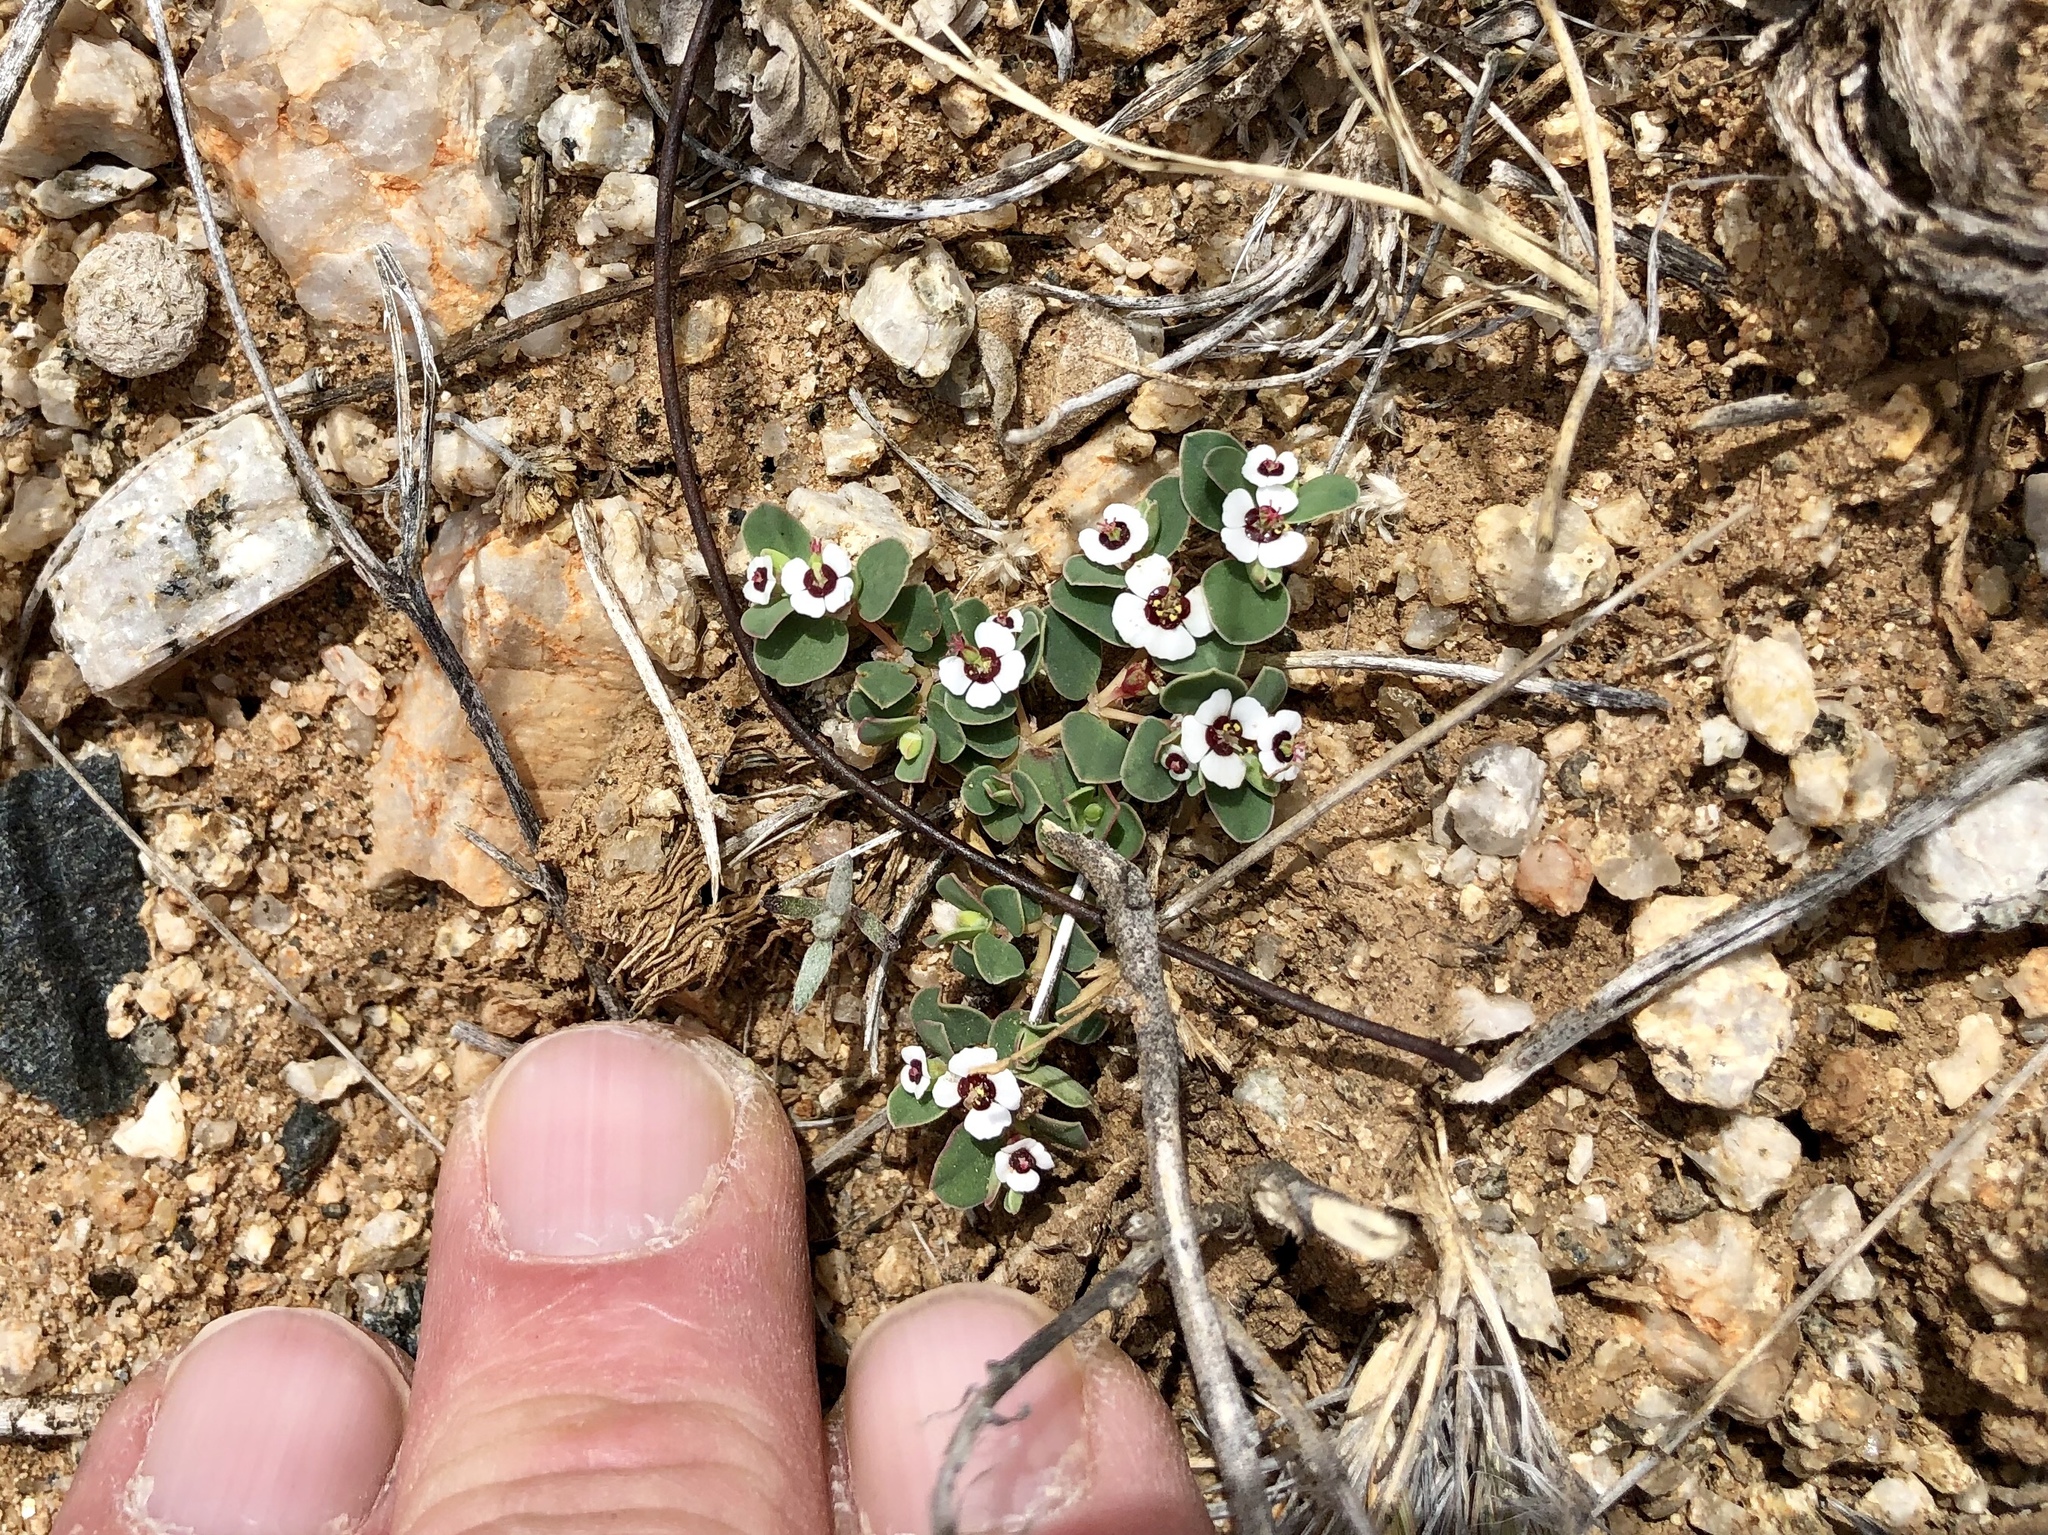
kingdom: Plantae
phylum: Tracheophyta
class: Magnoliopsida
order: Malpighiales
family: Euphorbiaceae
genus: Euphorbia
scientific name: Euphorbia albomarginata
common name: Whitemargin sandmat
